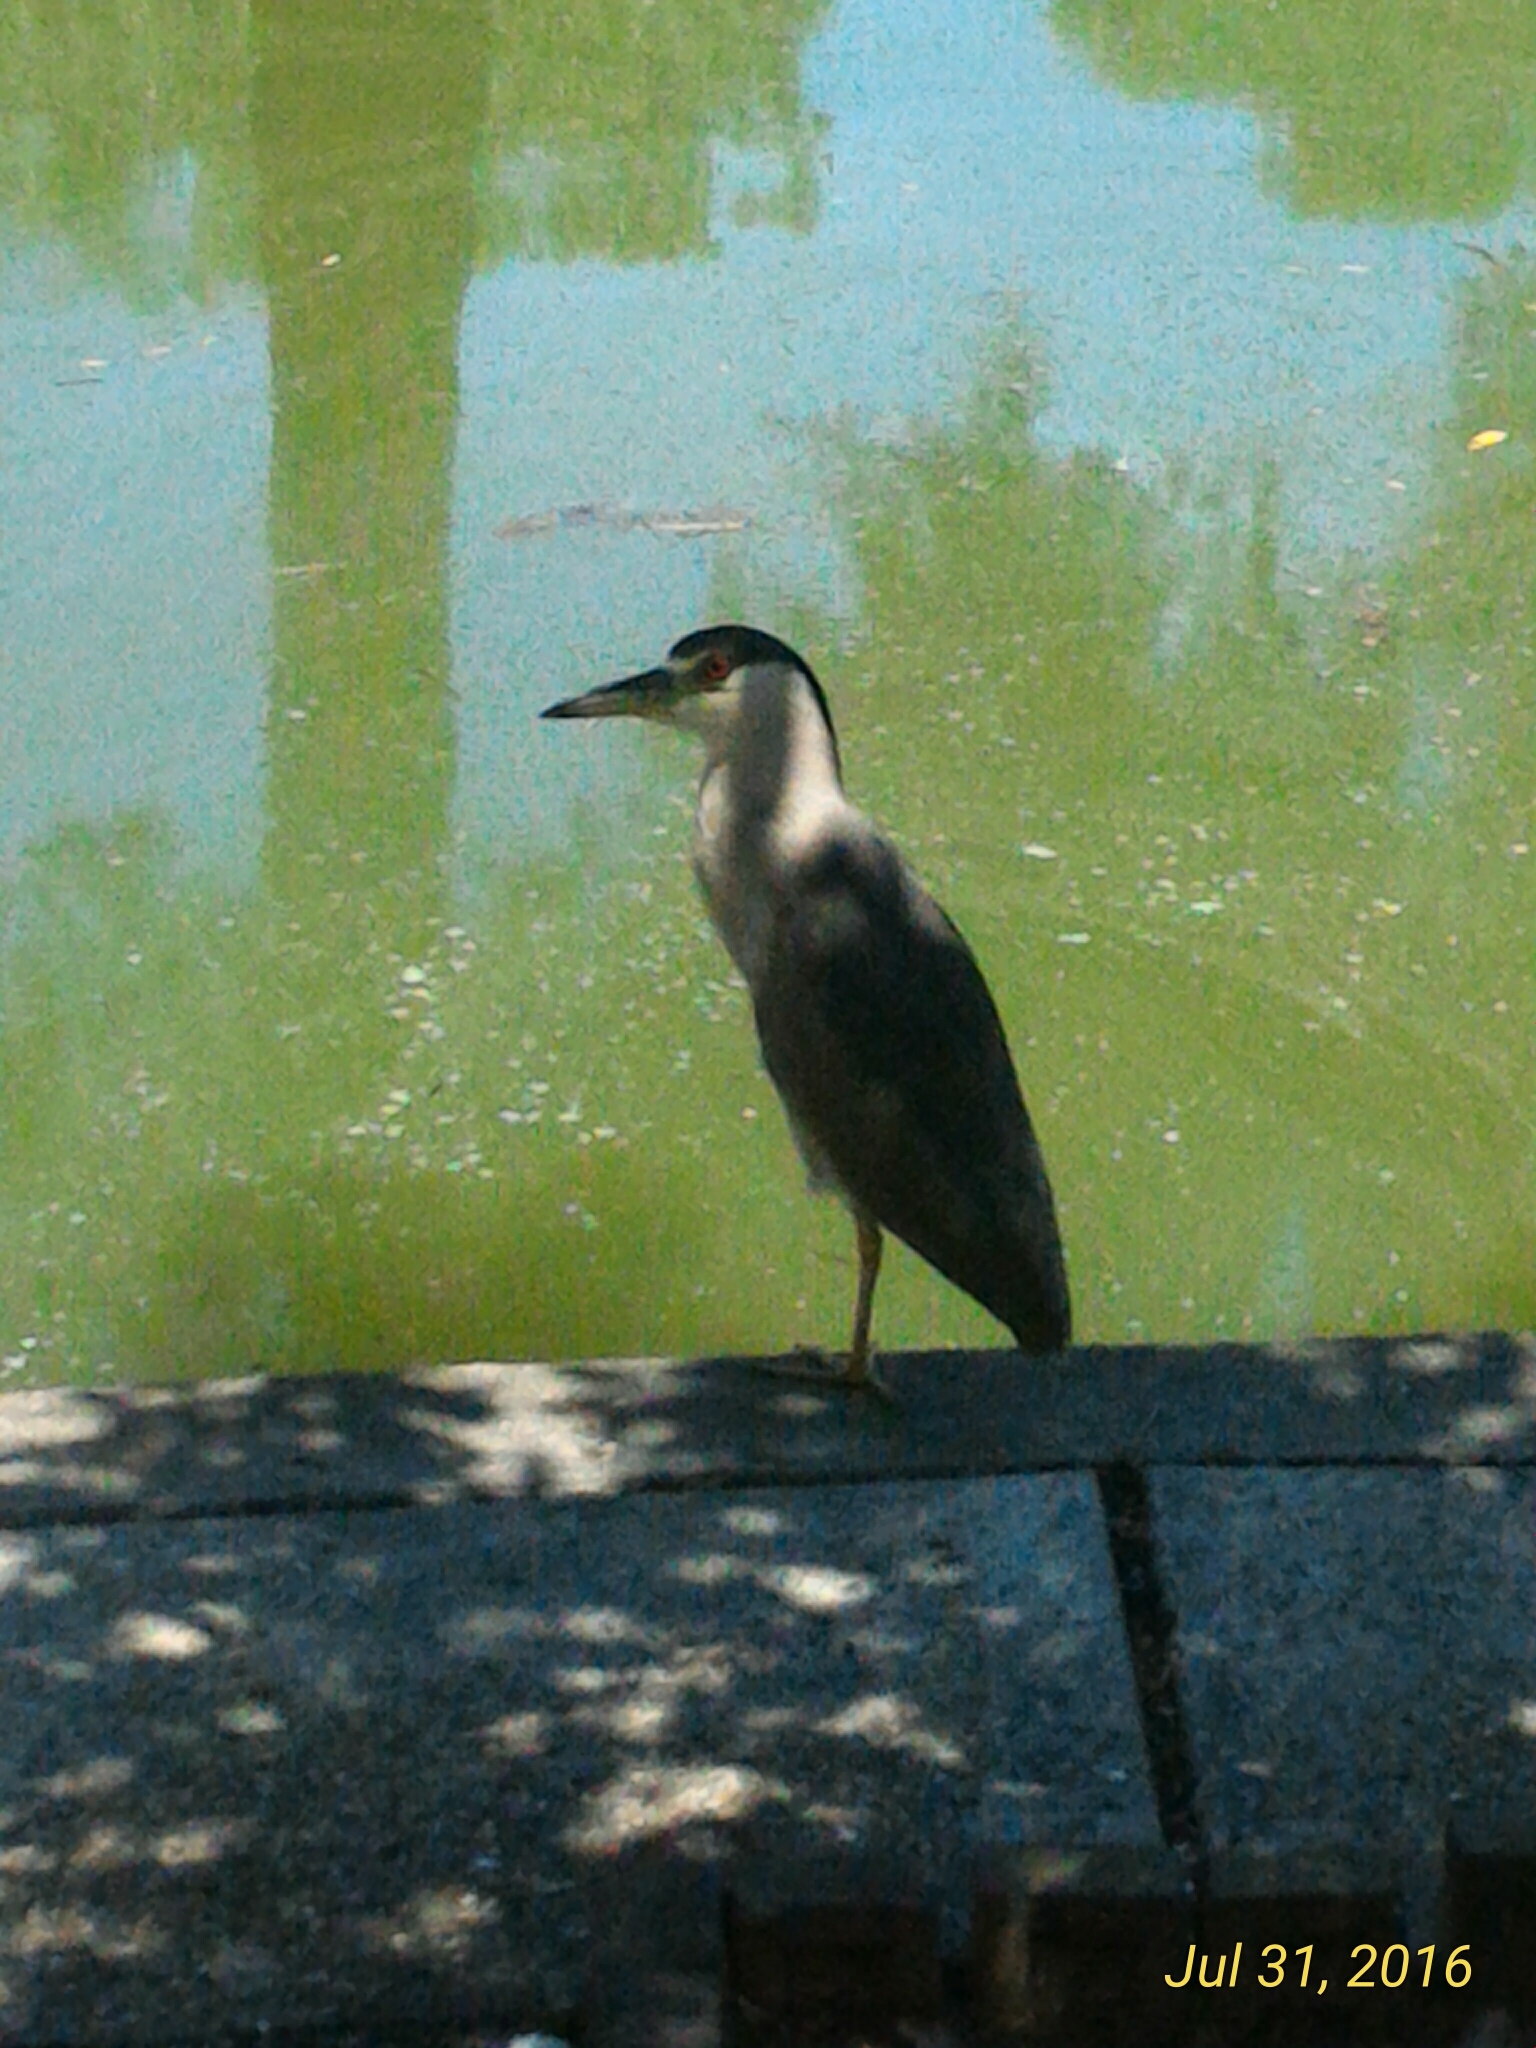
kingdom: Animalia
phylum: Chordata
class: Aves
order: Pelecaniformes
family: Ardeidae
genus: Nycticorax
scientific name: Nycticorax nycticorax
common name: Black-crowned night heron
